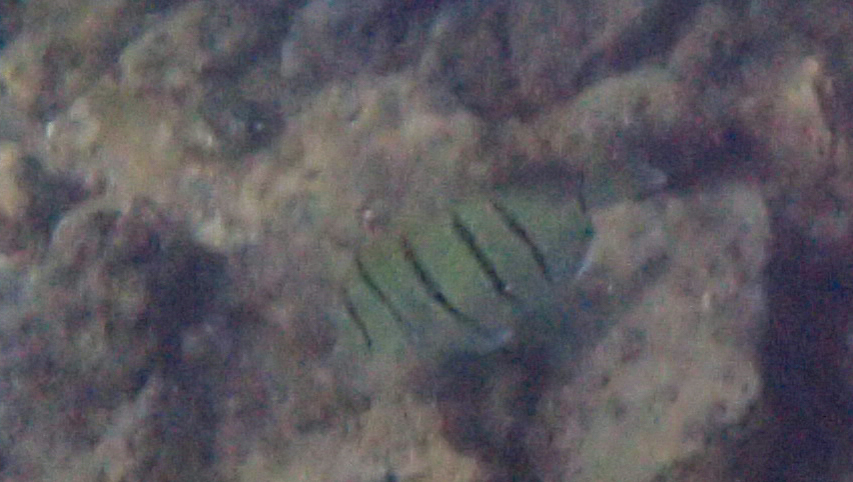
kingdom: Animalia
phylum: Chordata
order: Perciformes
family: Acanthuridae
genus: Acanthurus
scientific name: Acanthurus triostegus
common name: Convict surgeonfish
